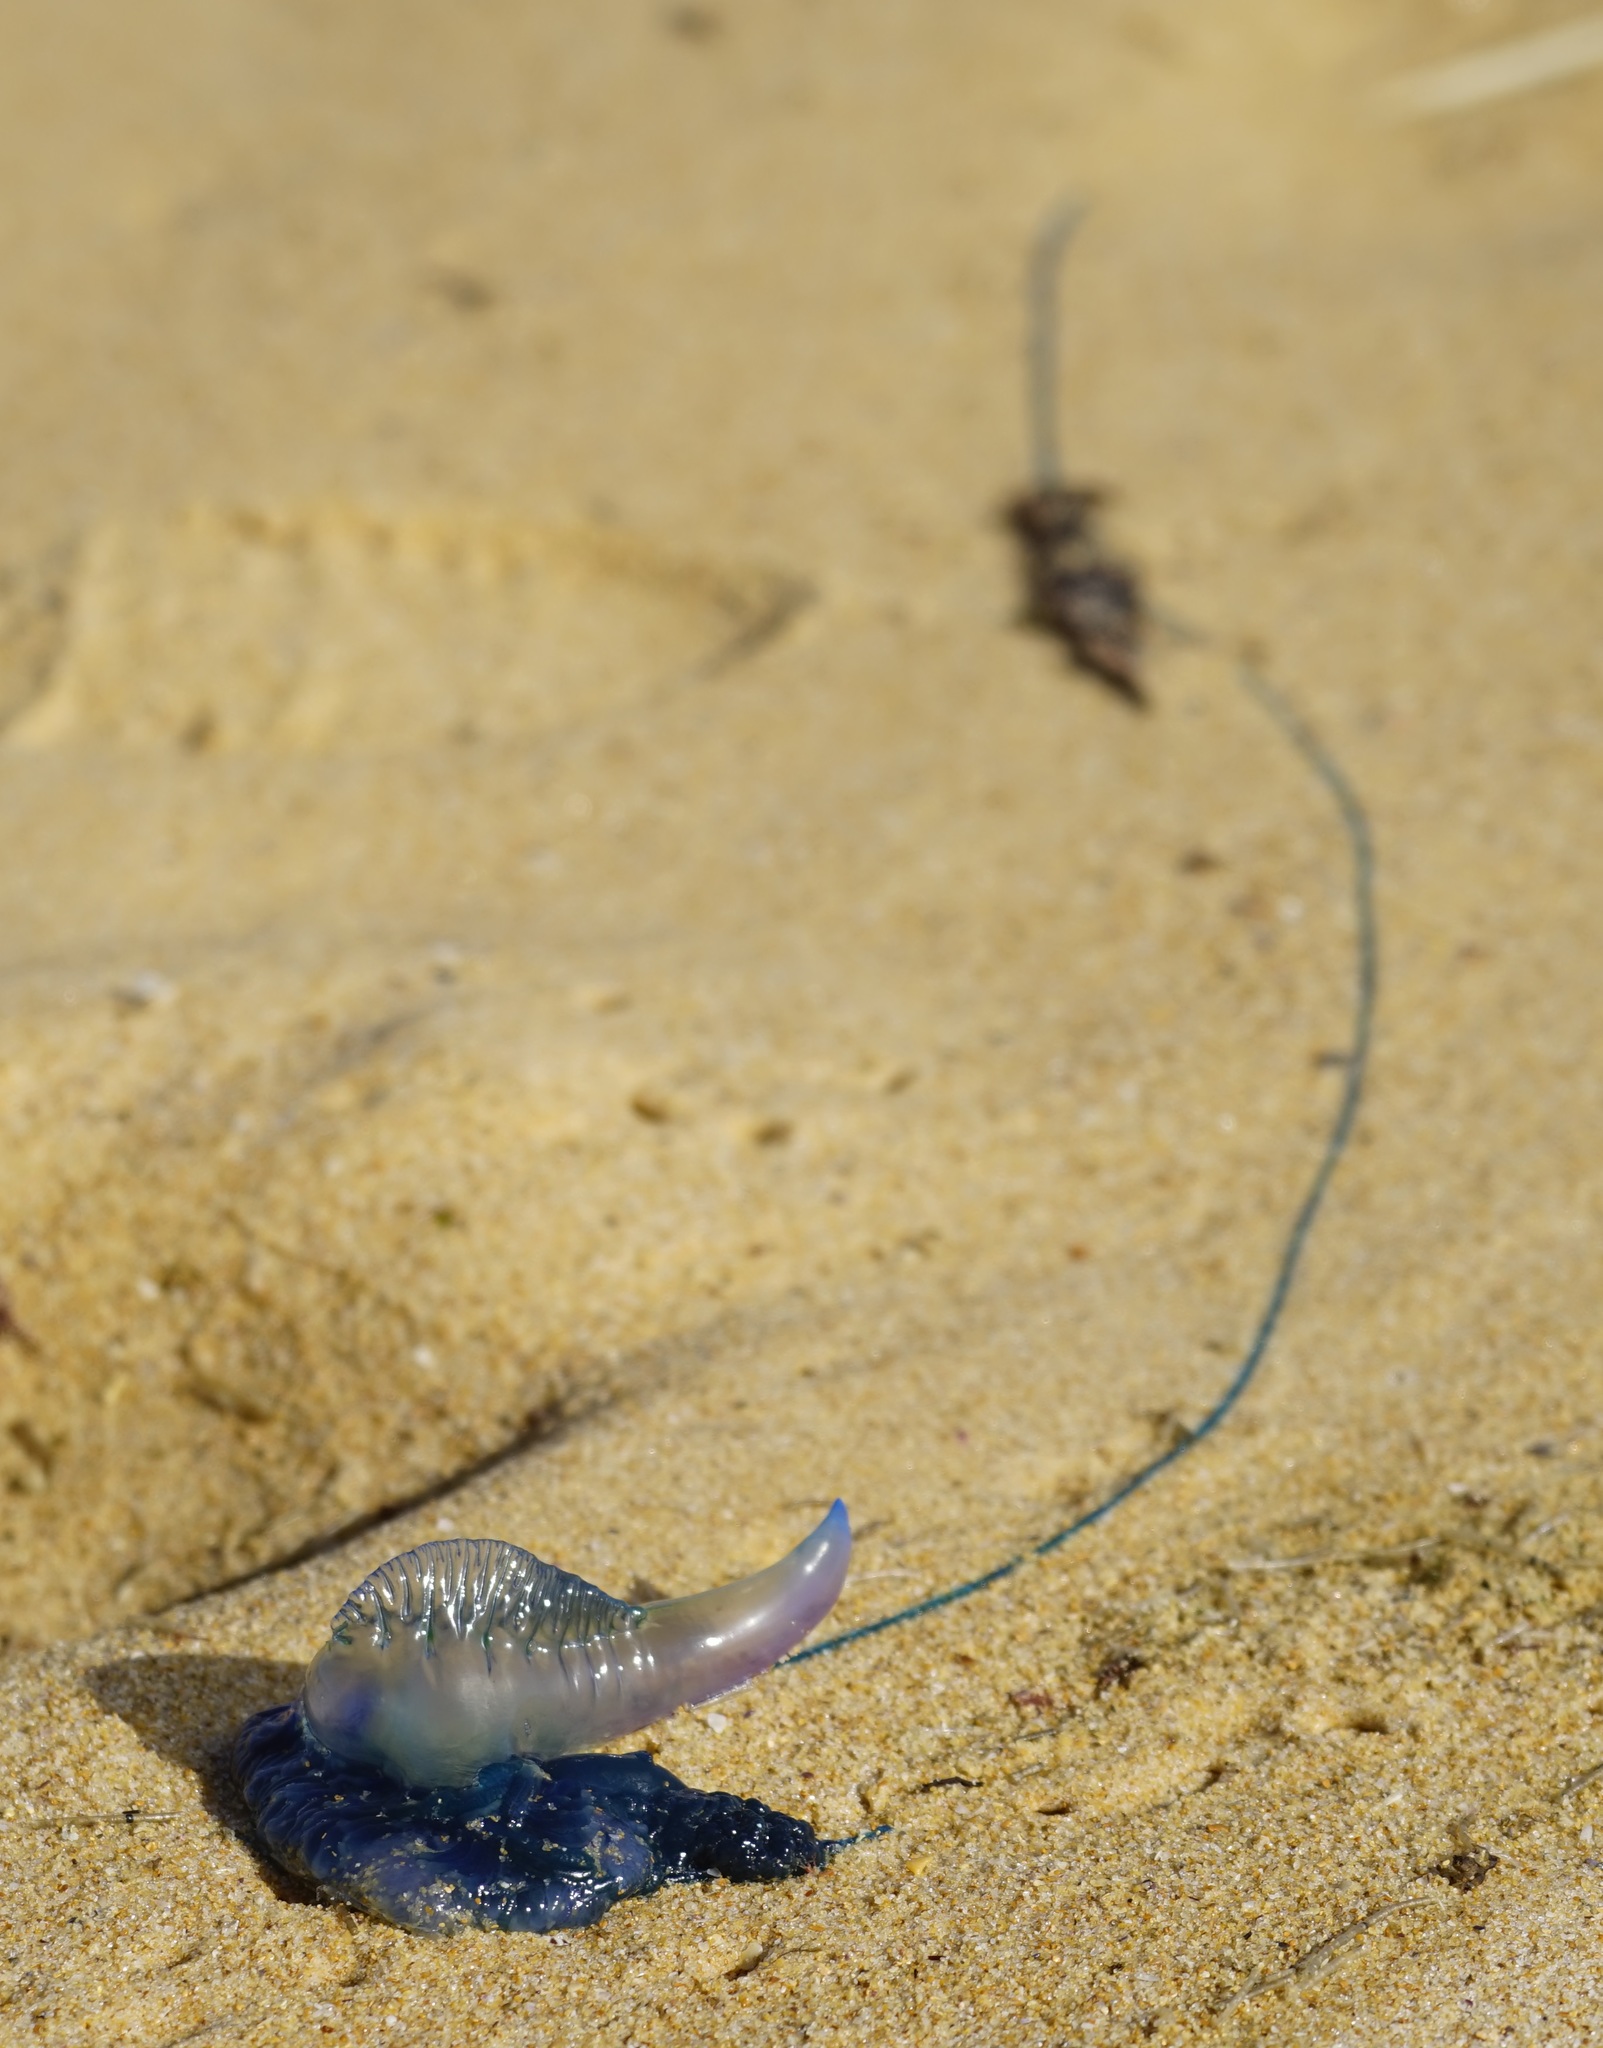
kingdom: Animalia
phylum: Cnidaria
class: Hydrozoa
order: Siphonophorae
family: Physaliidae
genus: Physalia
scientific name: Physalia physalis
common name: Portuguese man-of-war
